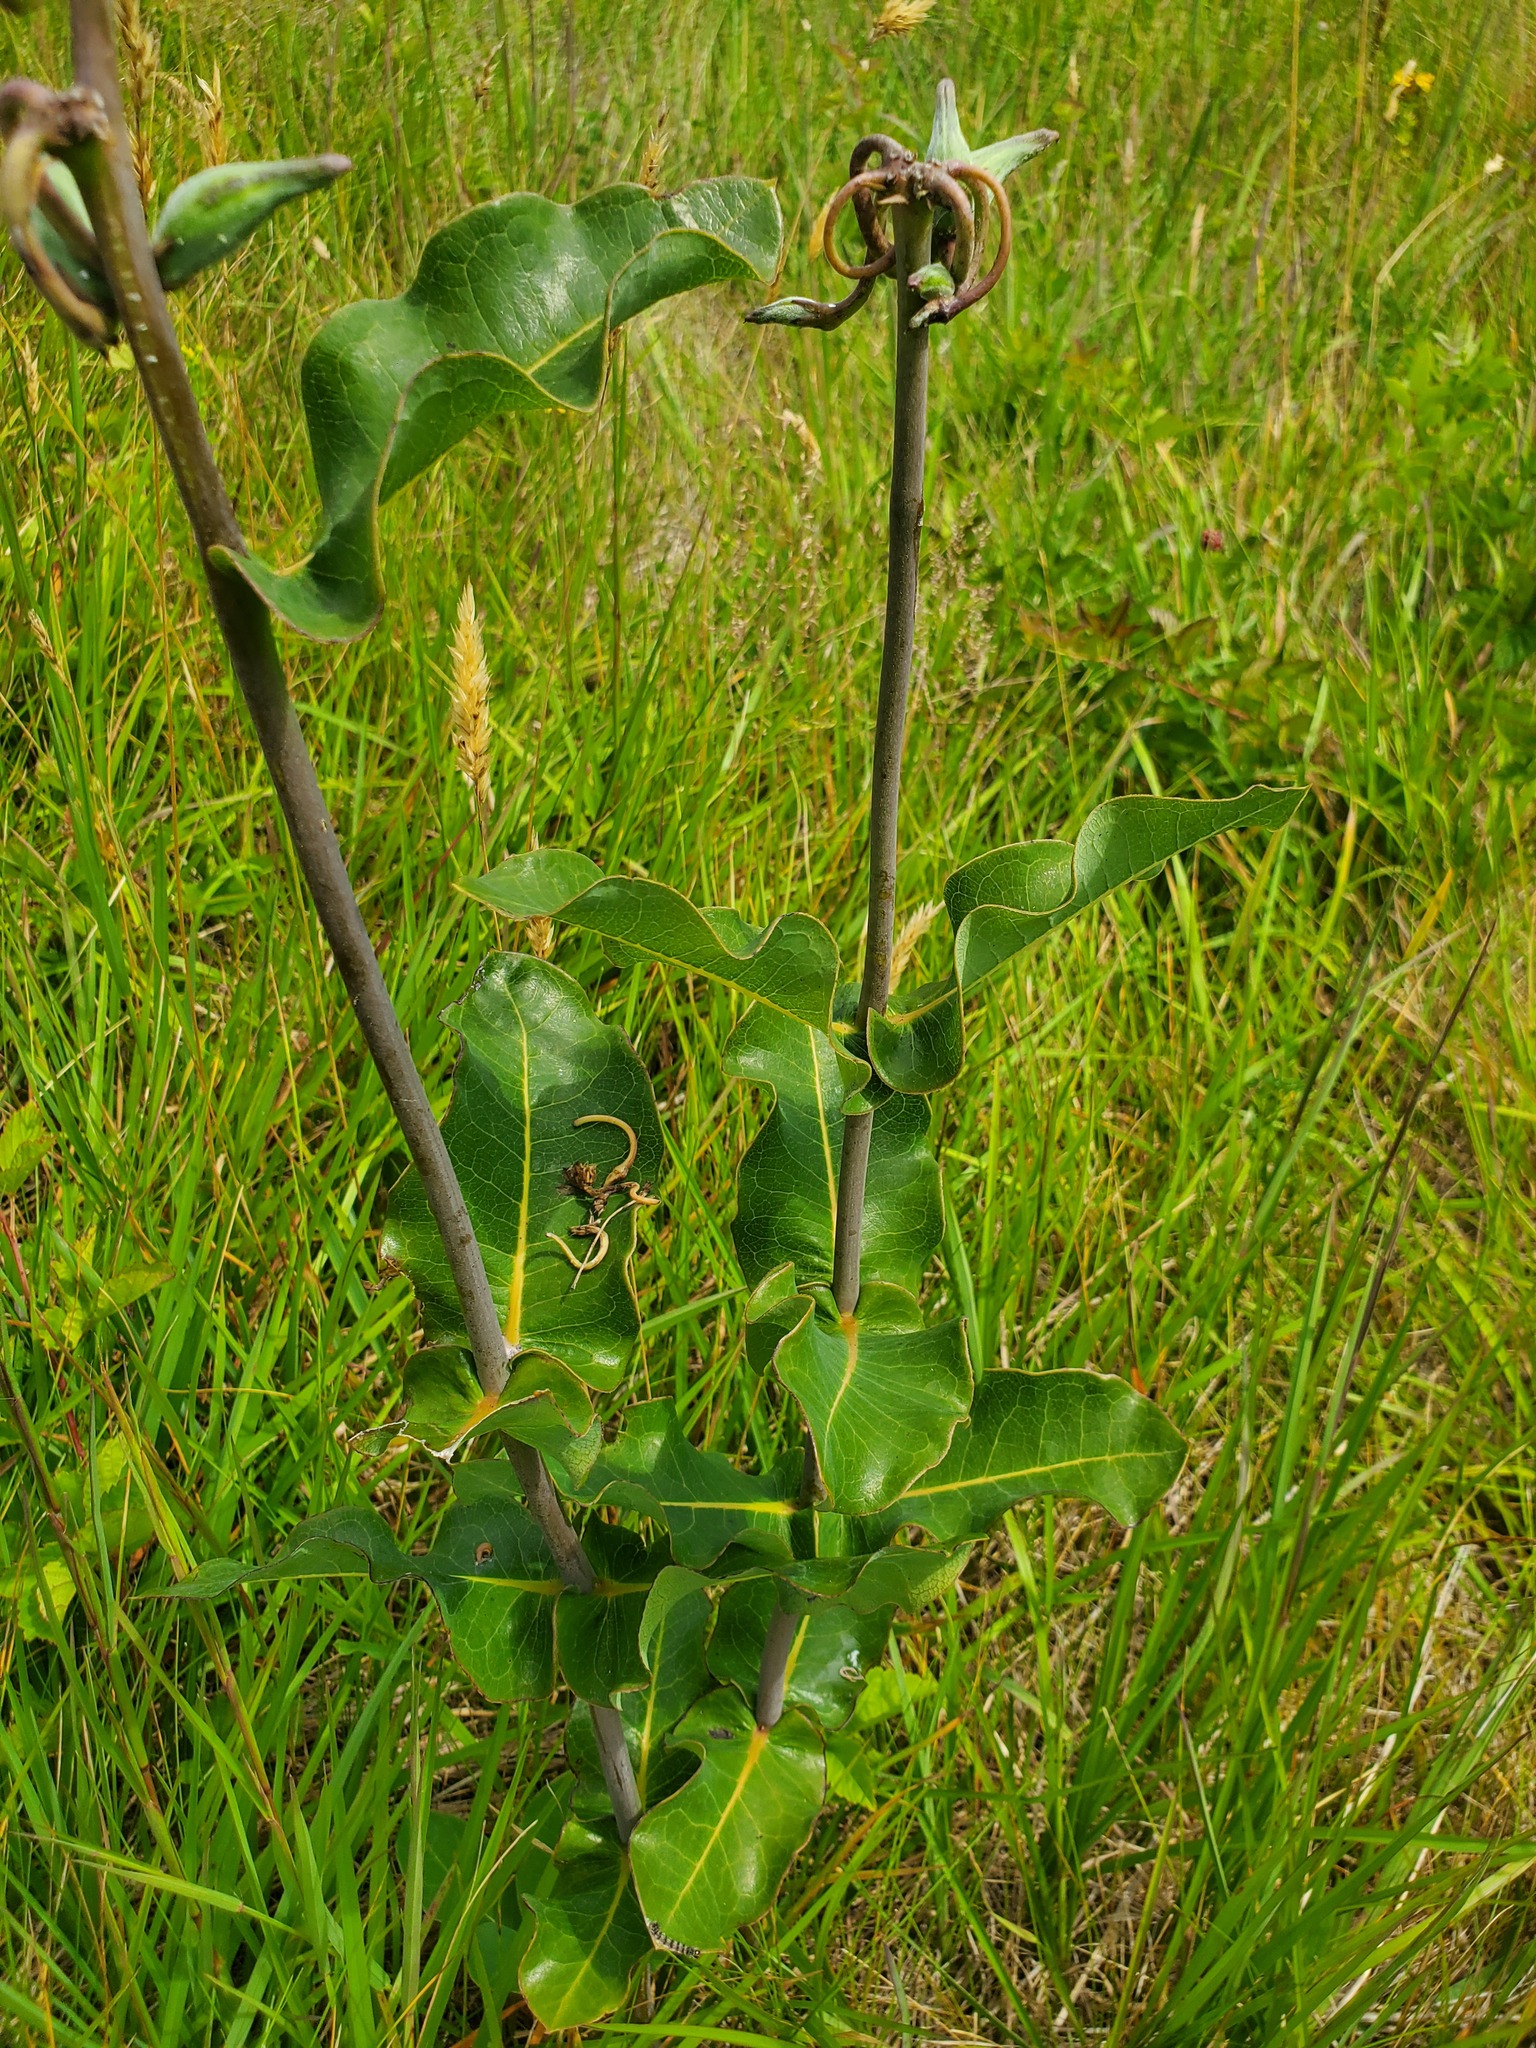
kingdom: Plantae
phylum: Tracheophyta
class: Magnoliopsida
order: Gentianales
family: Apocynaceae
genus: Asclepias
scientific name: Asclepias amplexicaulis
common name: Blunt-leaf milkweed
